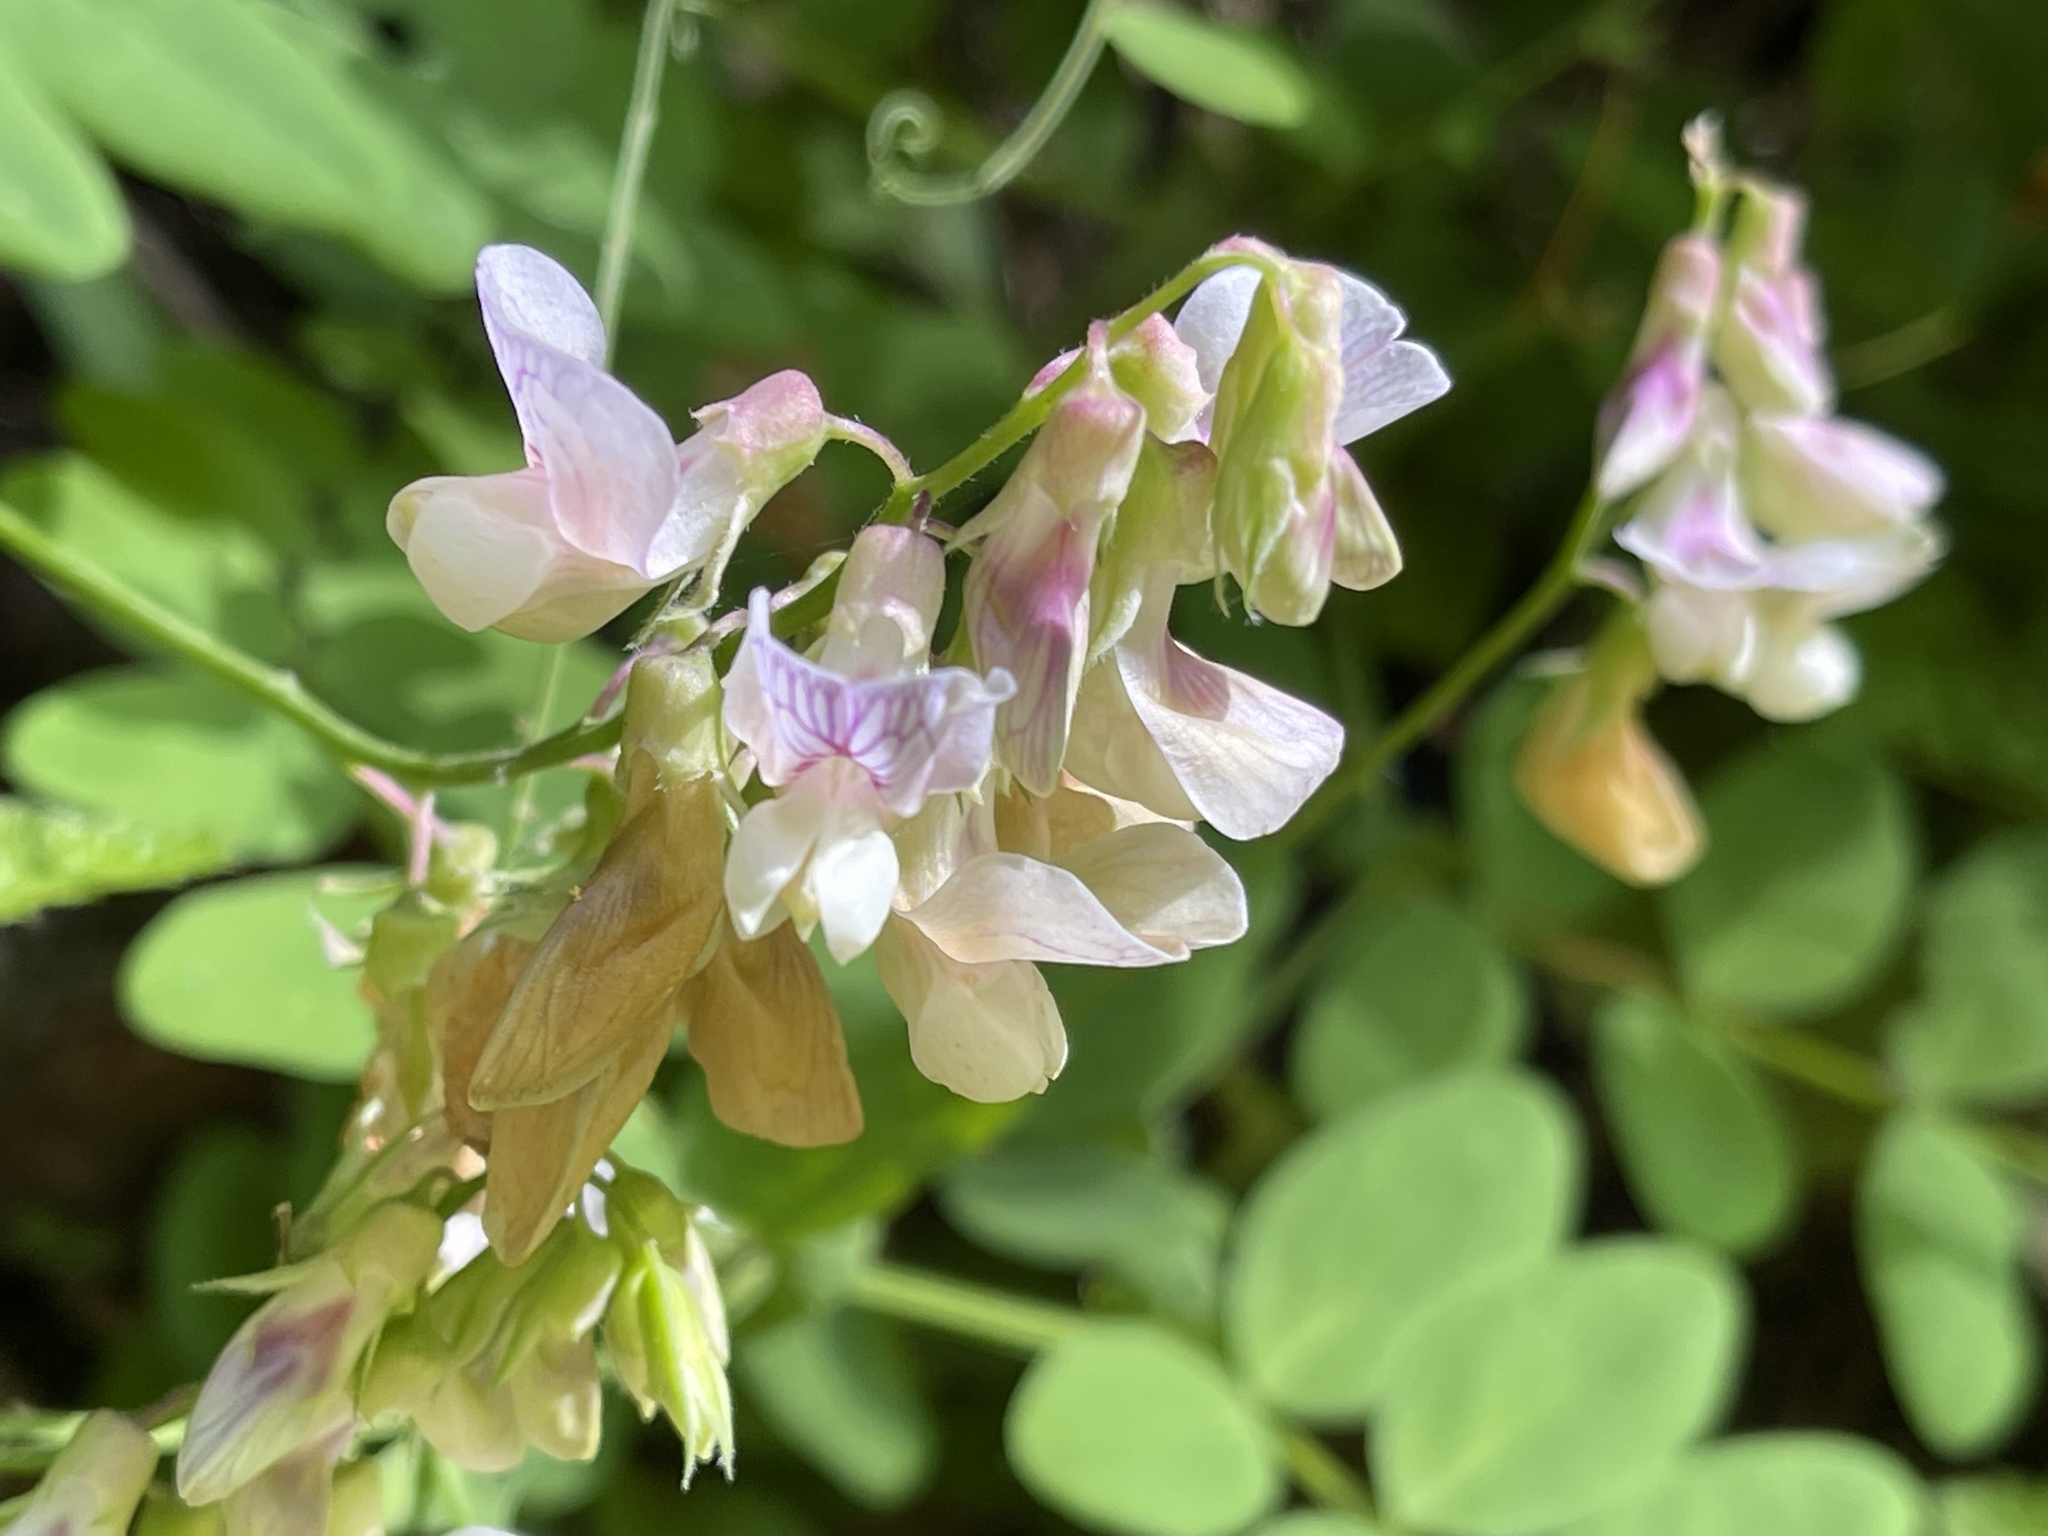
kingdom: Plantae
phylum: Tracheophyta
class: Magnoliopsida
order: Fabales
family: Fabaceae
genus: Lathyrus
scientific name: Lathyrus vestitus
